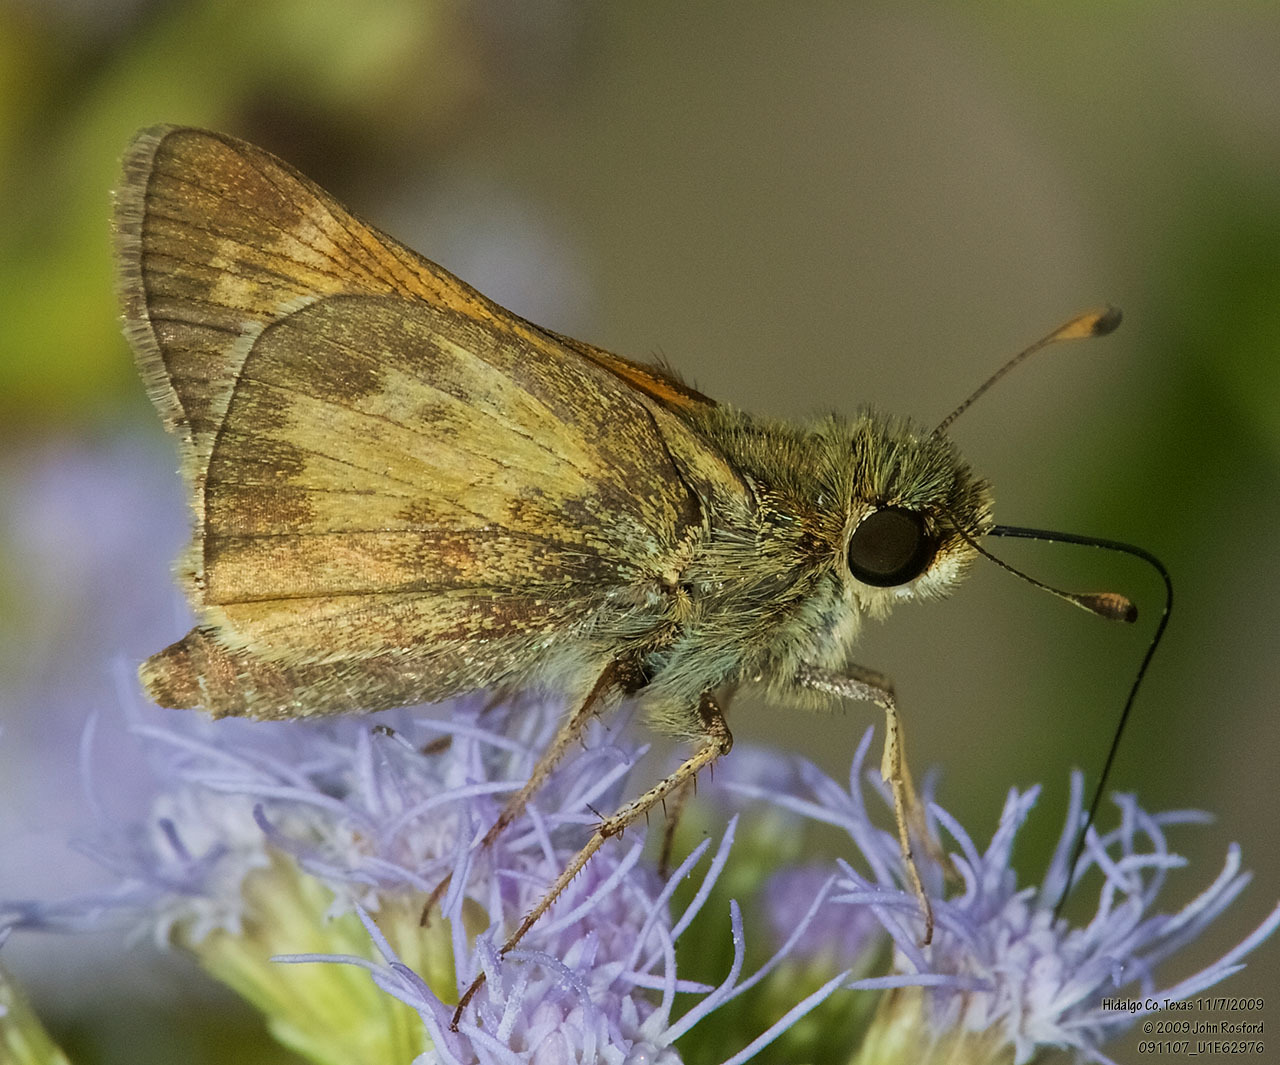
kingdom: Animalia
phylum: Arthropoda
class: Insecta
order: Lepidoptera
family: Hesperiidae
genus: Atalopedes
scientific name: Atalopedes
